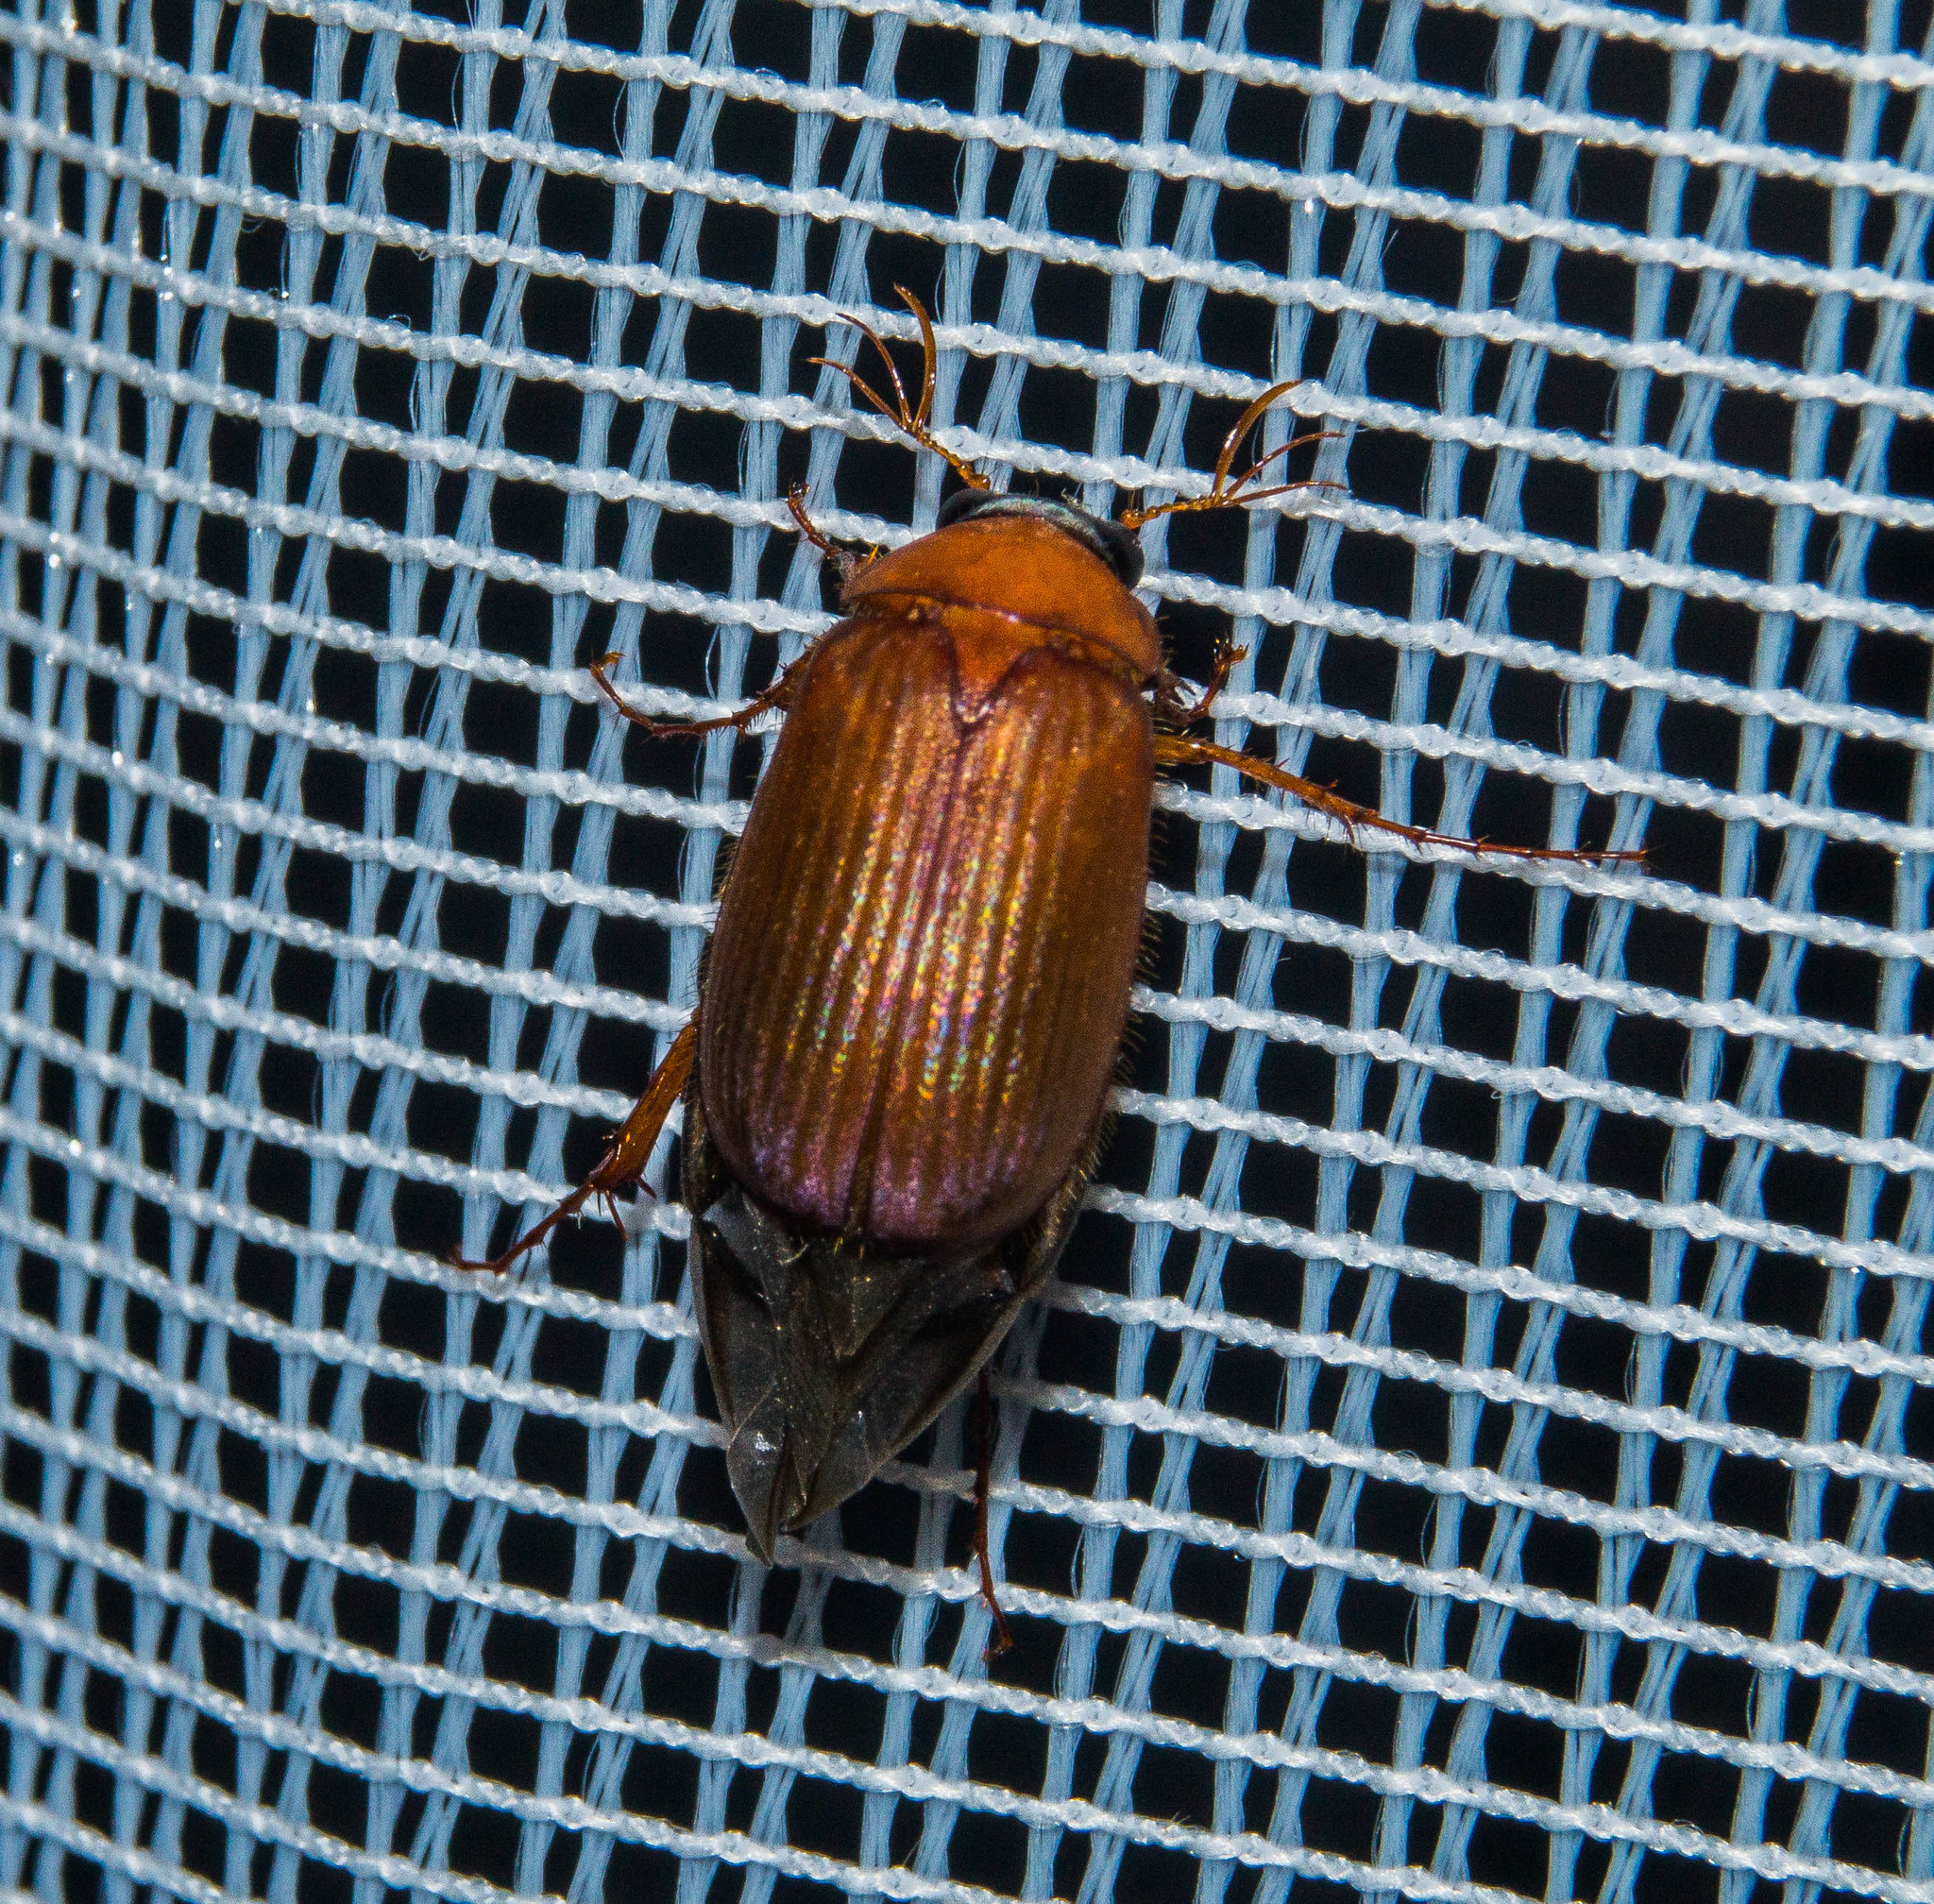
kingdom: Animalia
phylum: Arthropoda
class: Insecta
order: Coleoptera
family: Scarabaeidae
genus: Serica
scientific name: Serica brunnea
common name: Brown chafer
